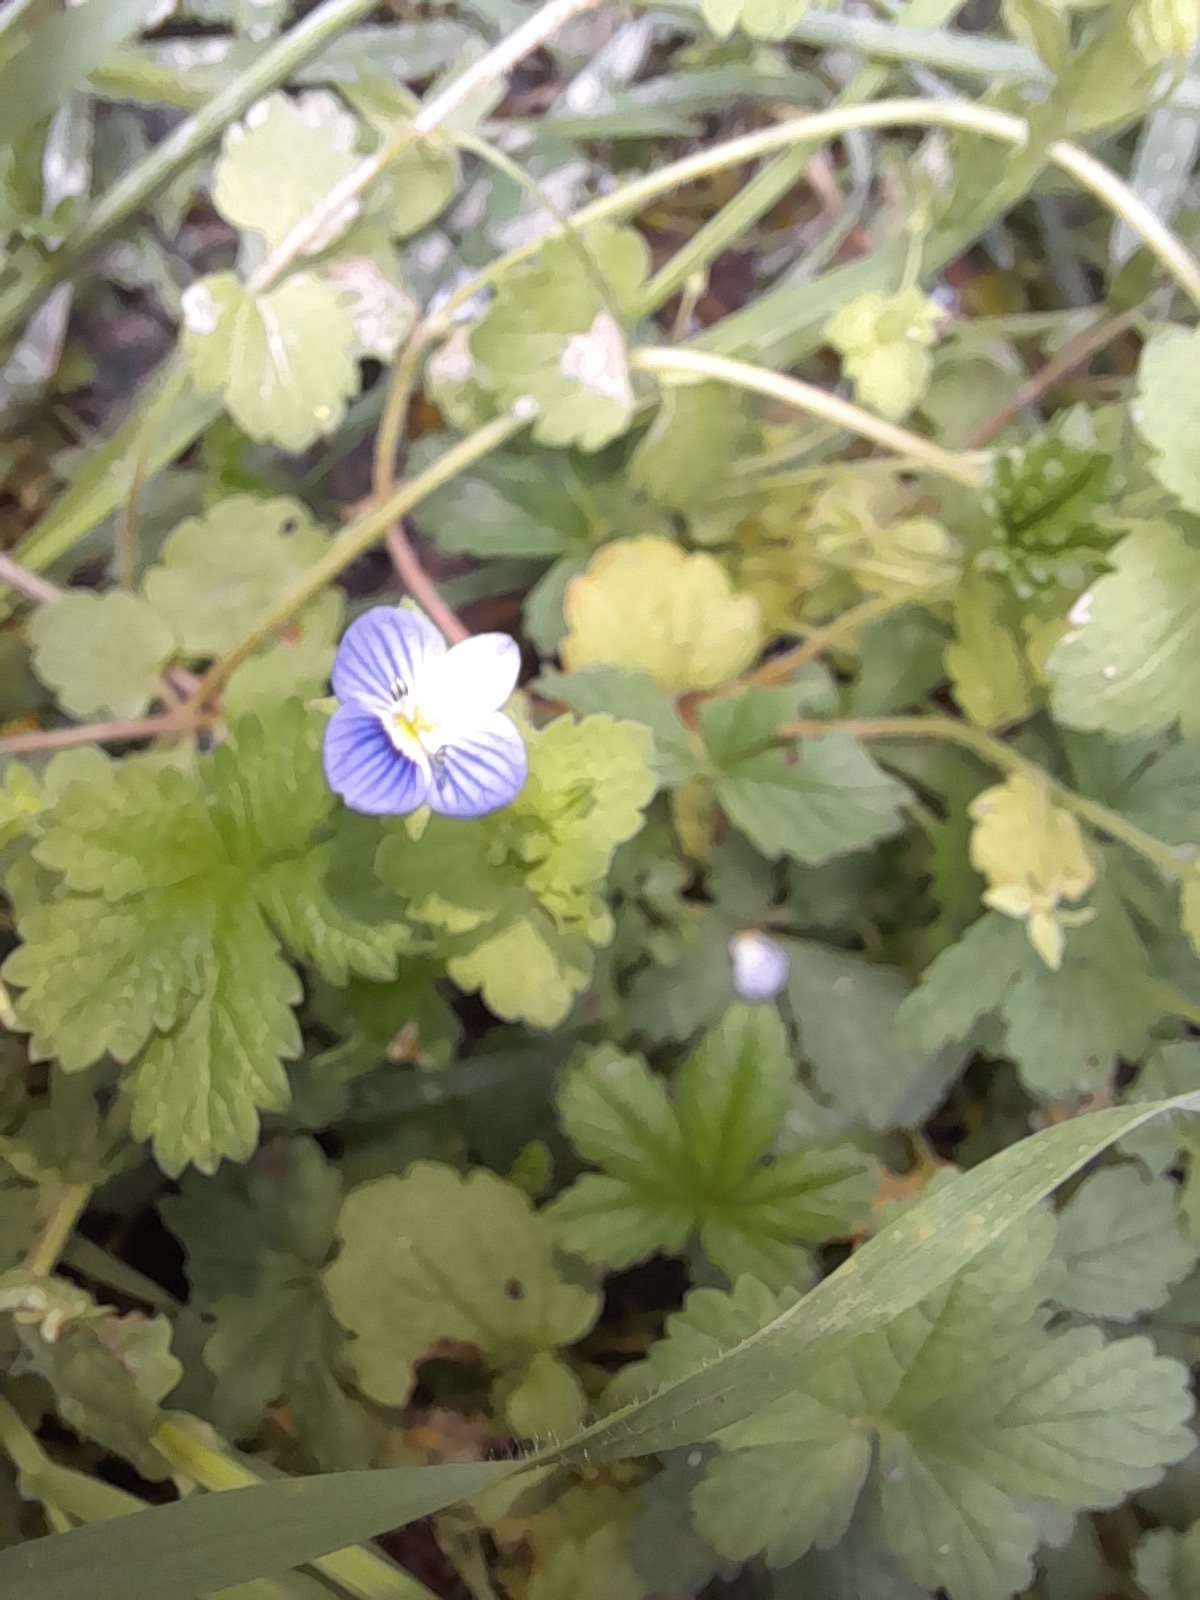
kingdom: Plantae
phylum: Tracheophyta
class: Magnoliopsida
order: Lamiales
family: Plantaginaceae
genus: Veronica
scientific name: Veronica persica
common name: Common field-speedwell
